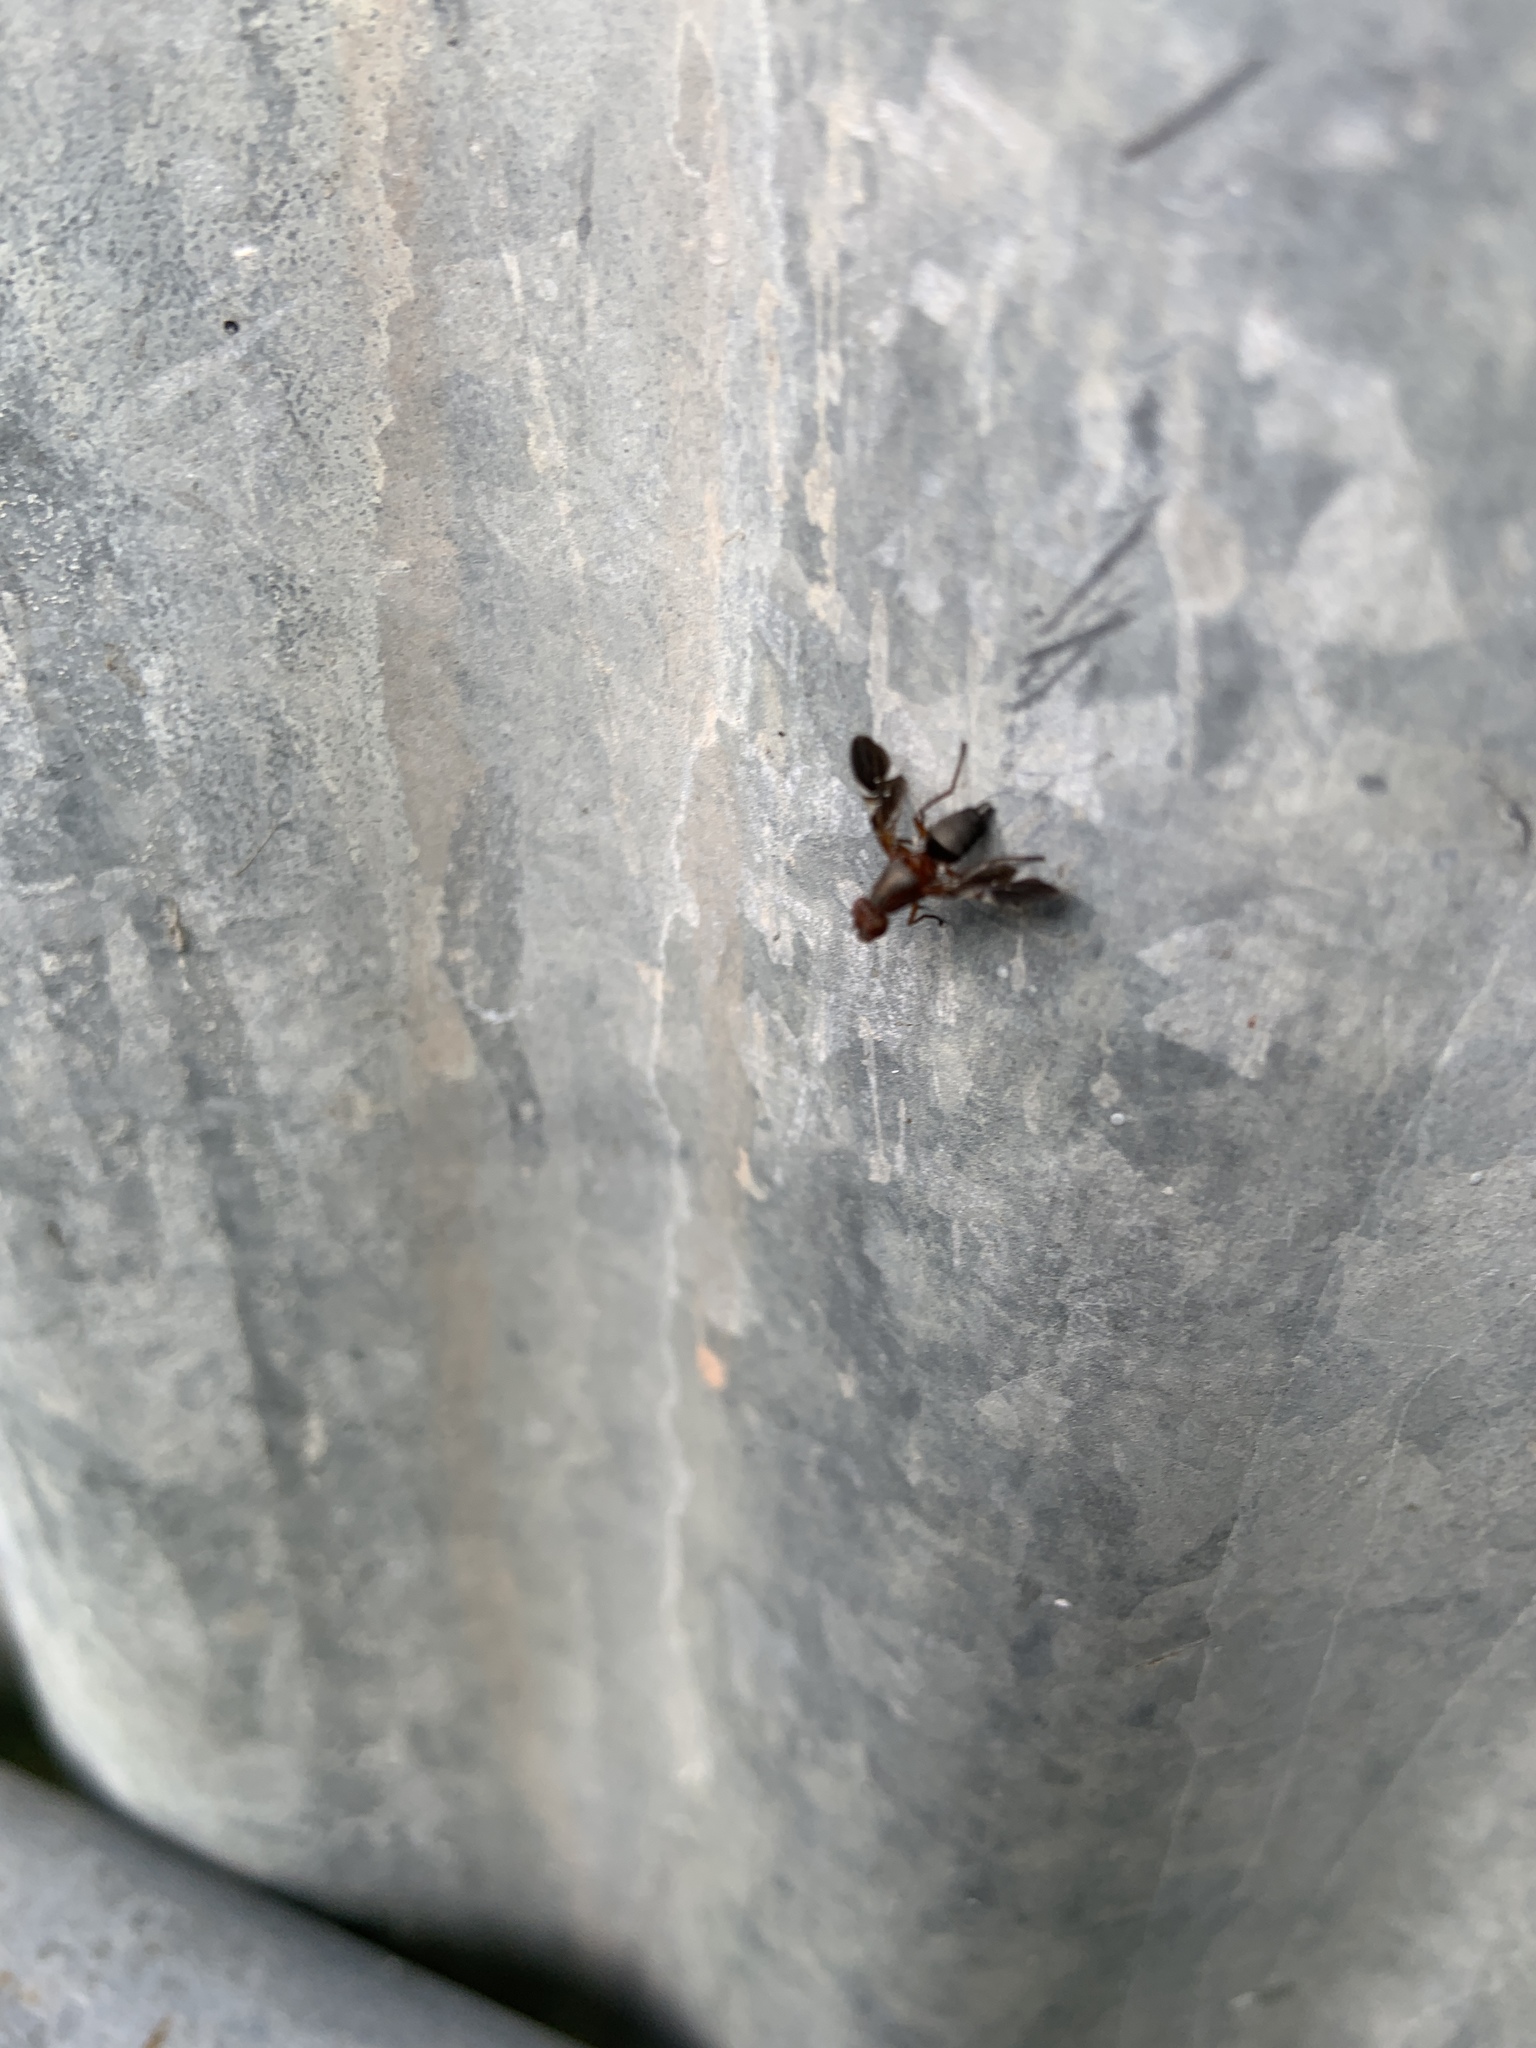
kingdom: Animalia
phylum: Arthropoda
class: Insecta
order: Diptera
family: Ulidiidae
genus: Delphinia
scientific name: Delphinia picta
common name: Common picture-winged fly
